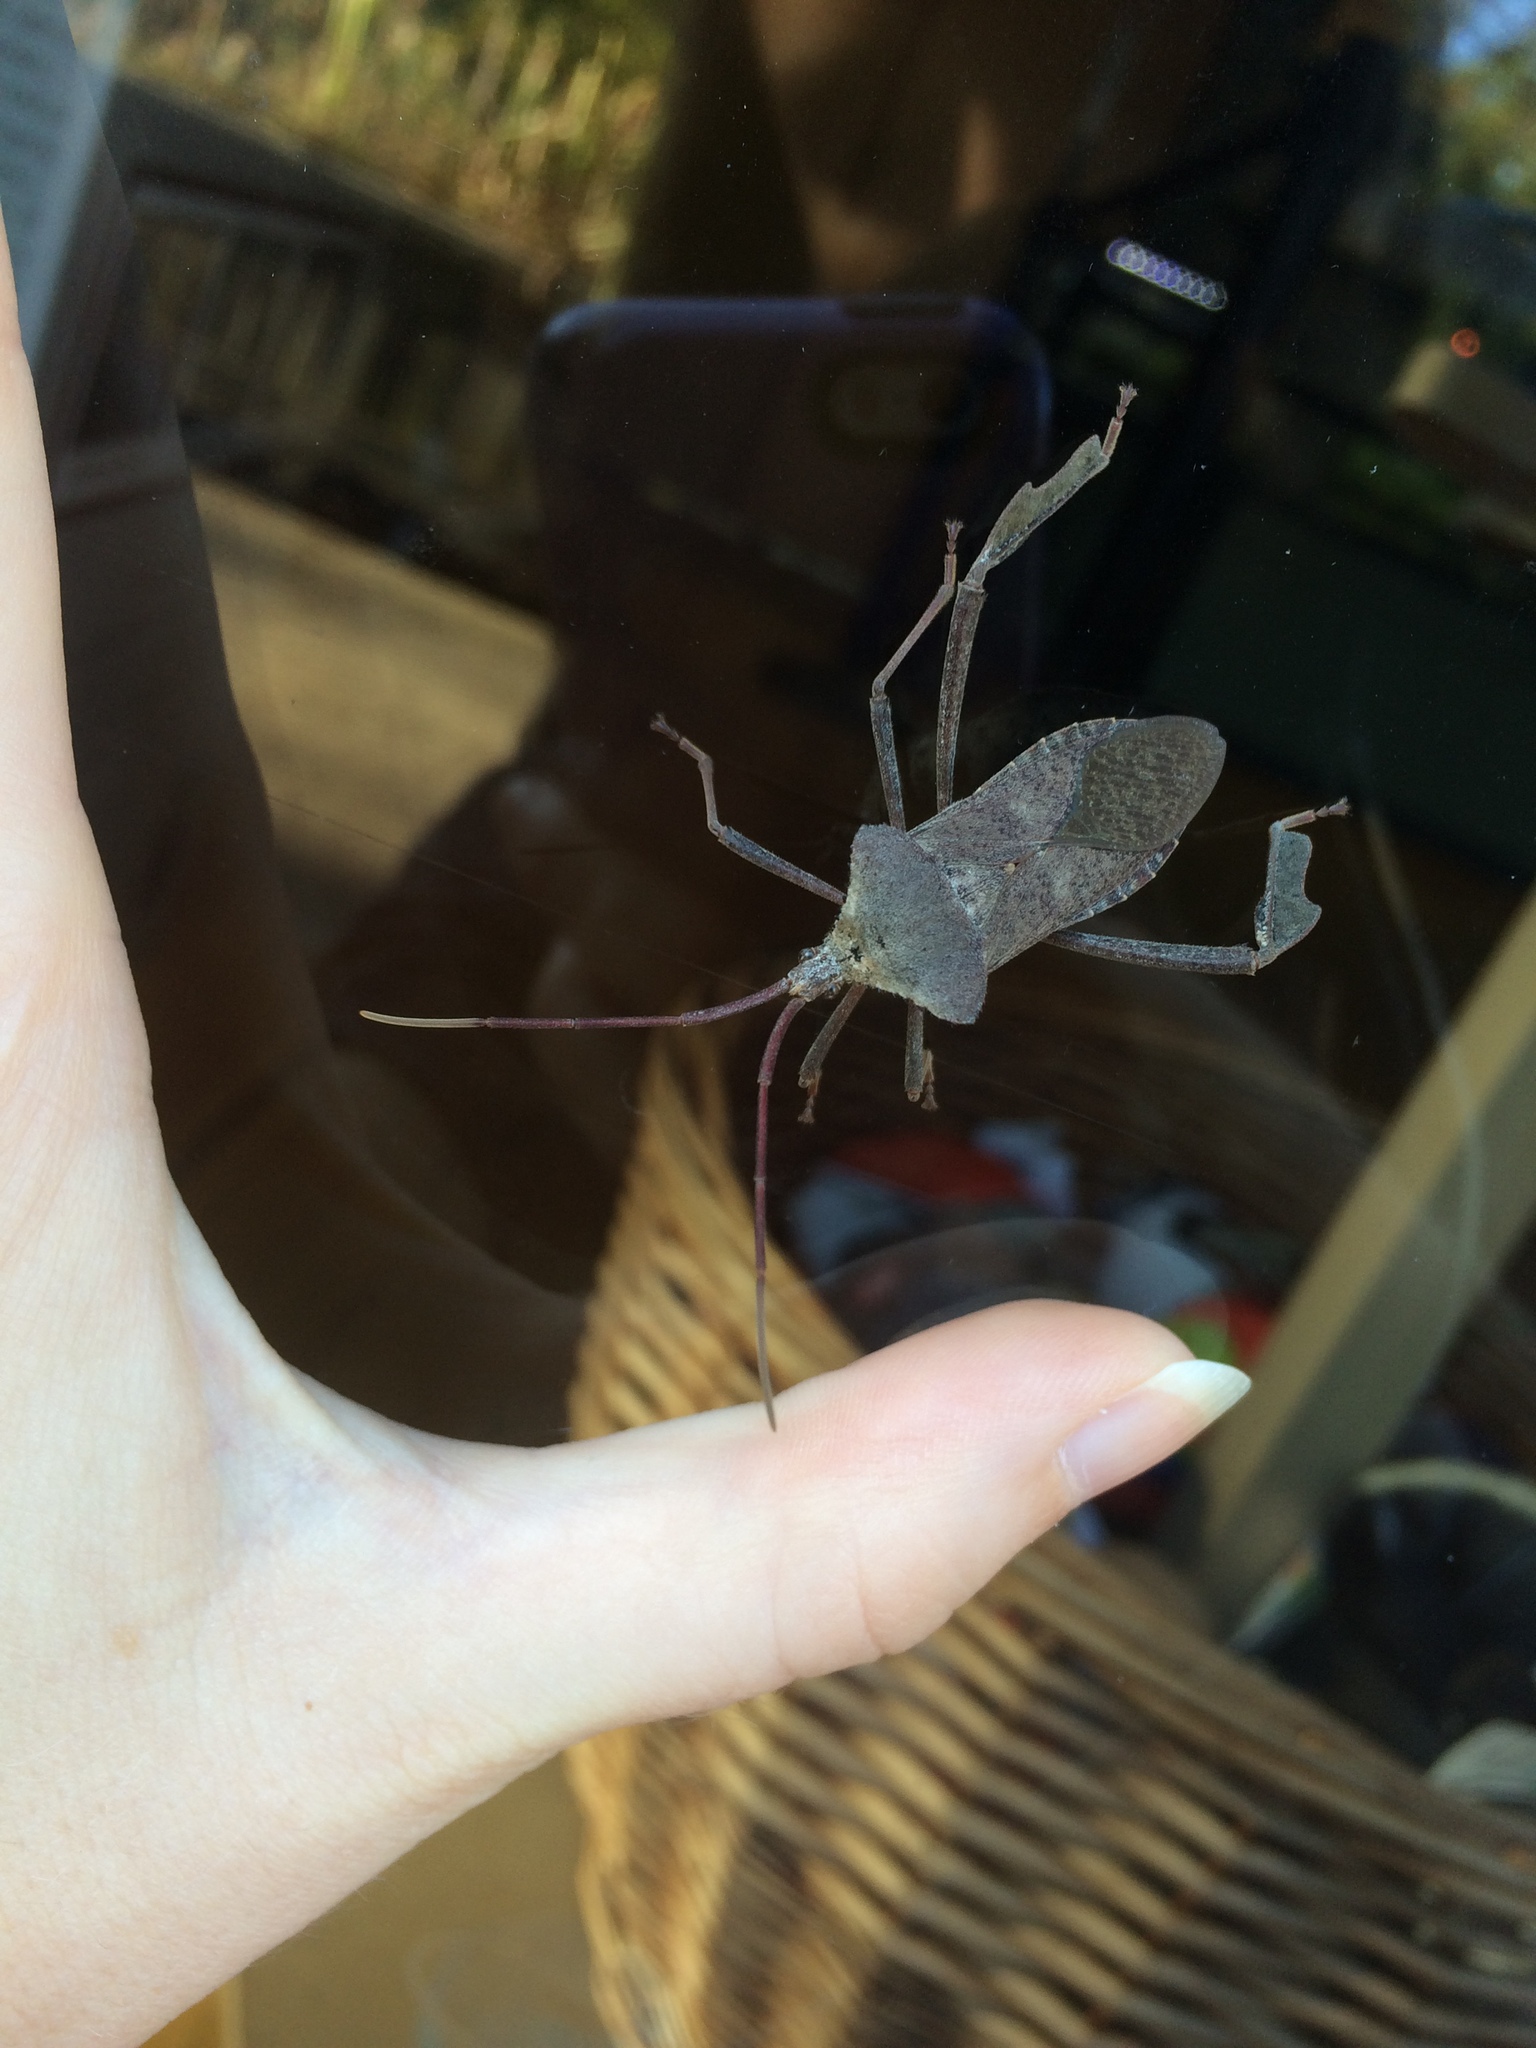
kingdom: Animalia
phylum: Arthropoda
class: Insecta
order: Hemiptera
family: Coreidae
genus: Acanthocephala
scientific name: Acanthocephala declivis
